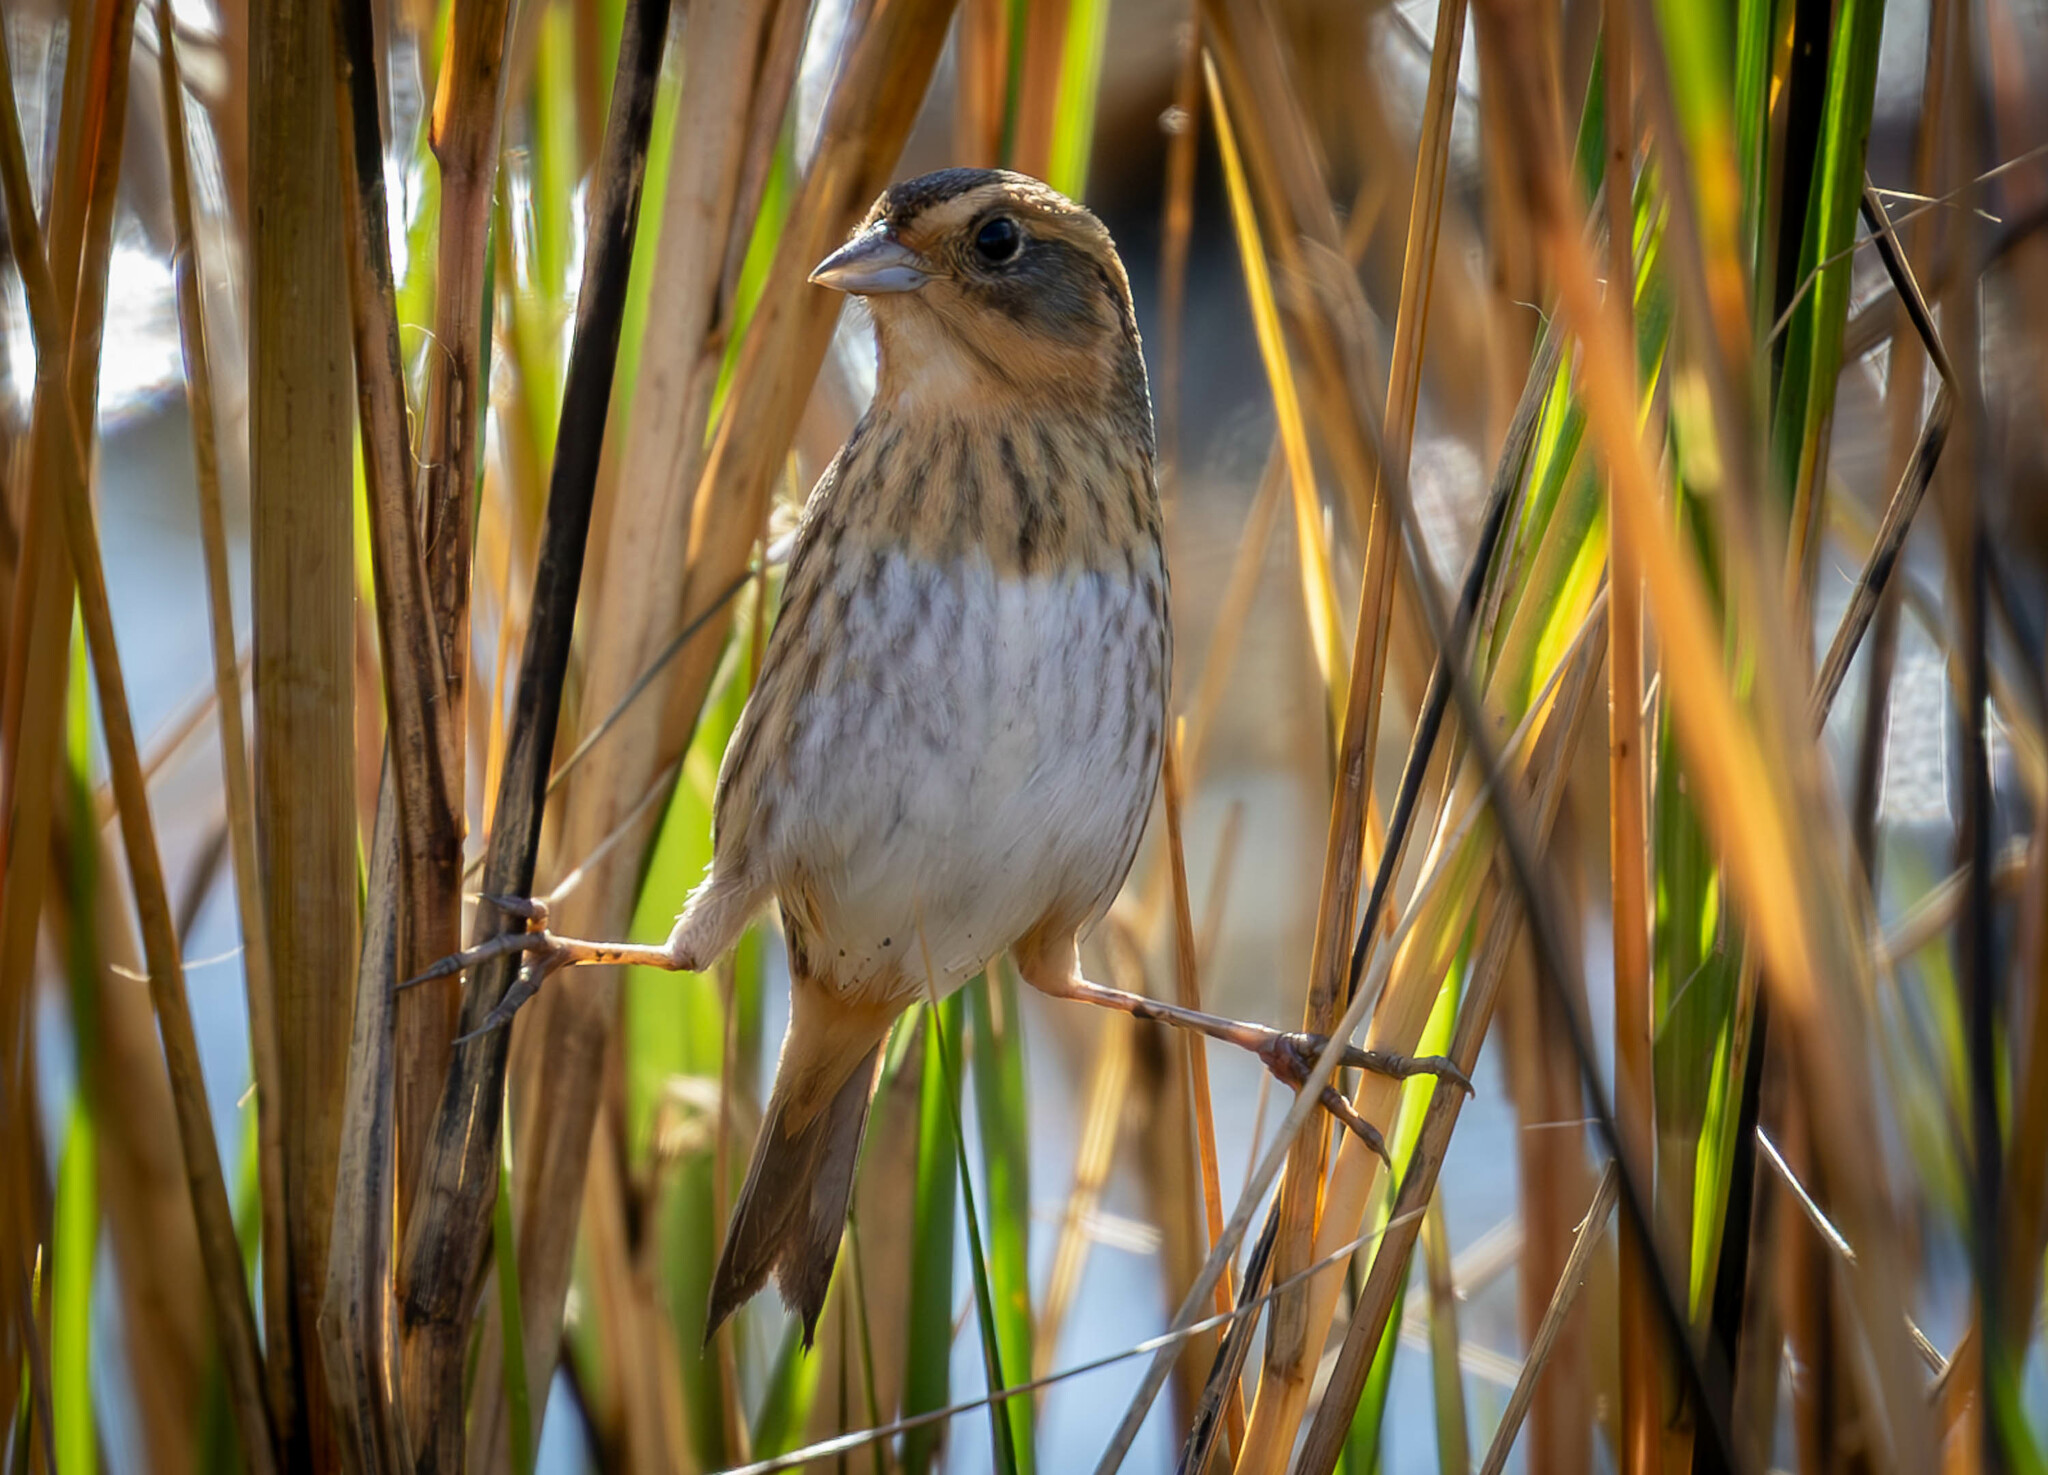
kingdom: Animalia
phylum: Chordata
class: Aves
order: Passeriformes
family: Passerellidae
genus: Ammospiza
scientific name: Ammospiza nelsoni
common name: Nelson's sparrow
